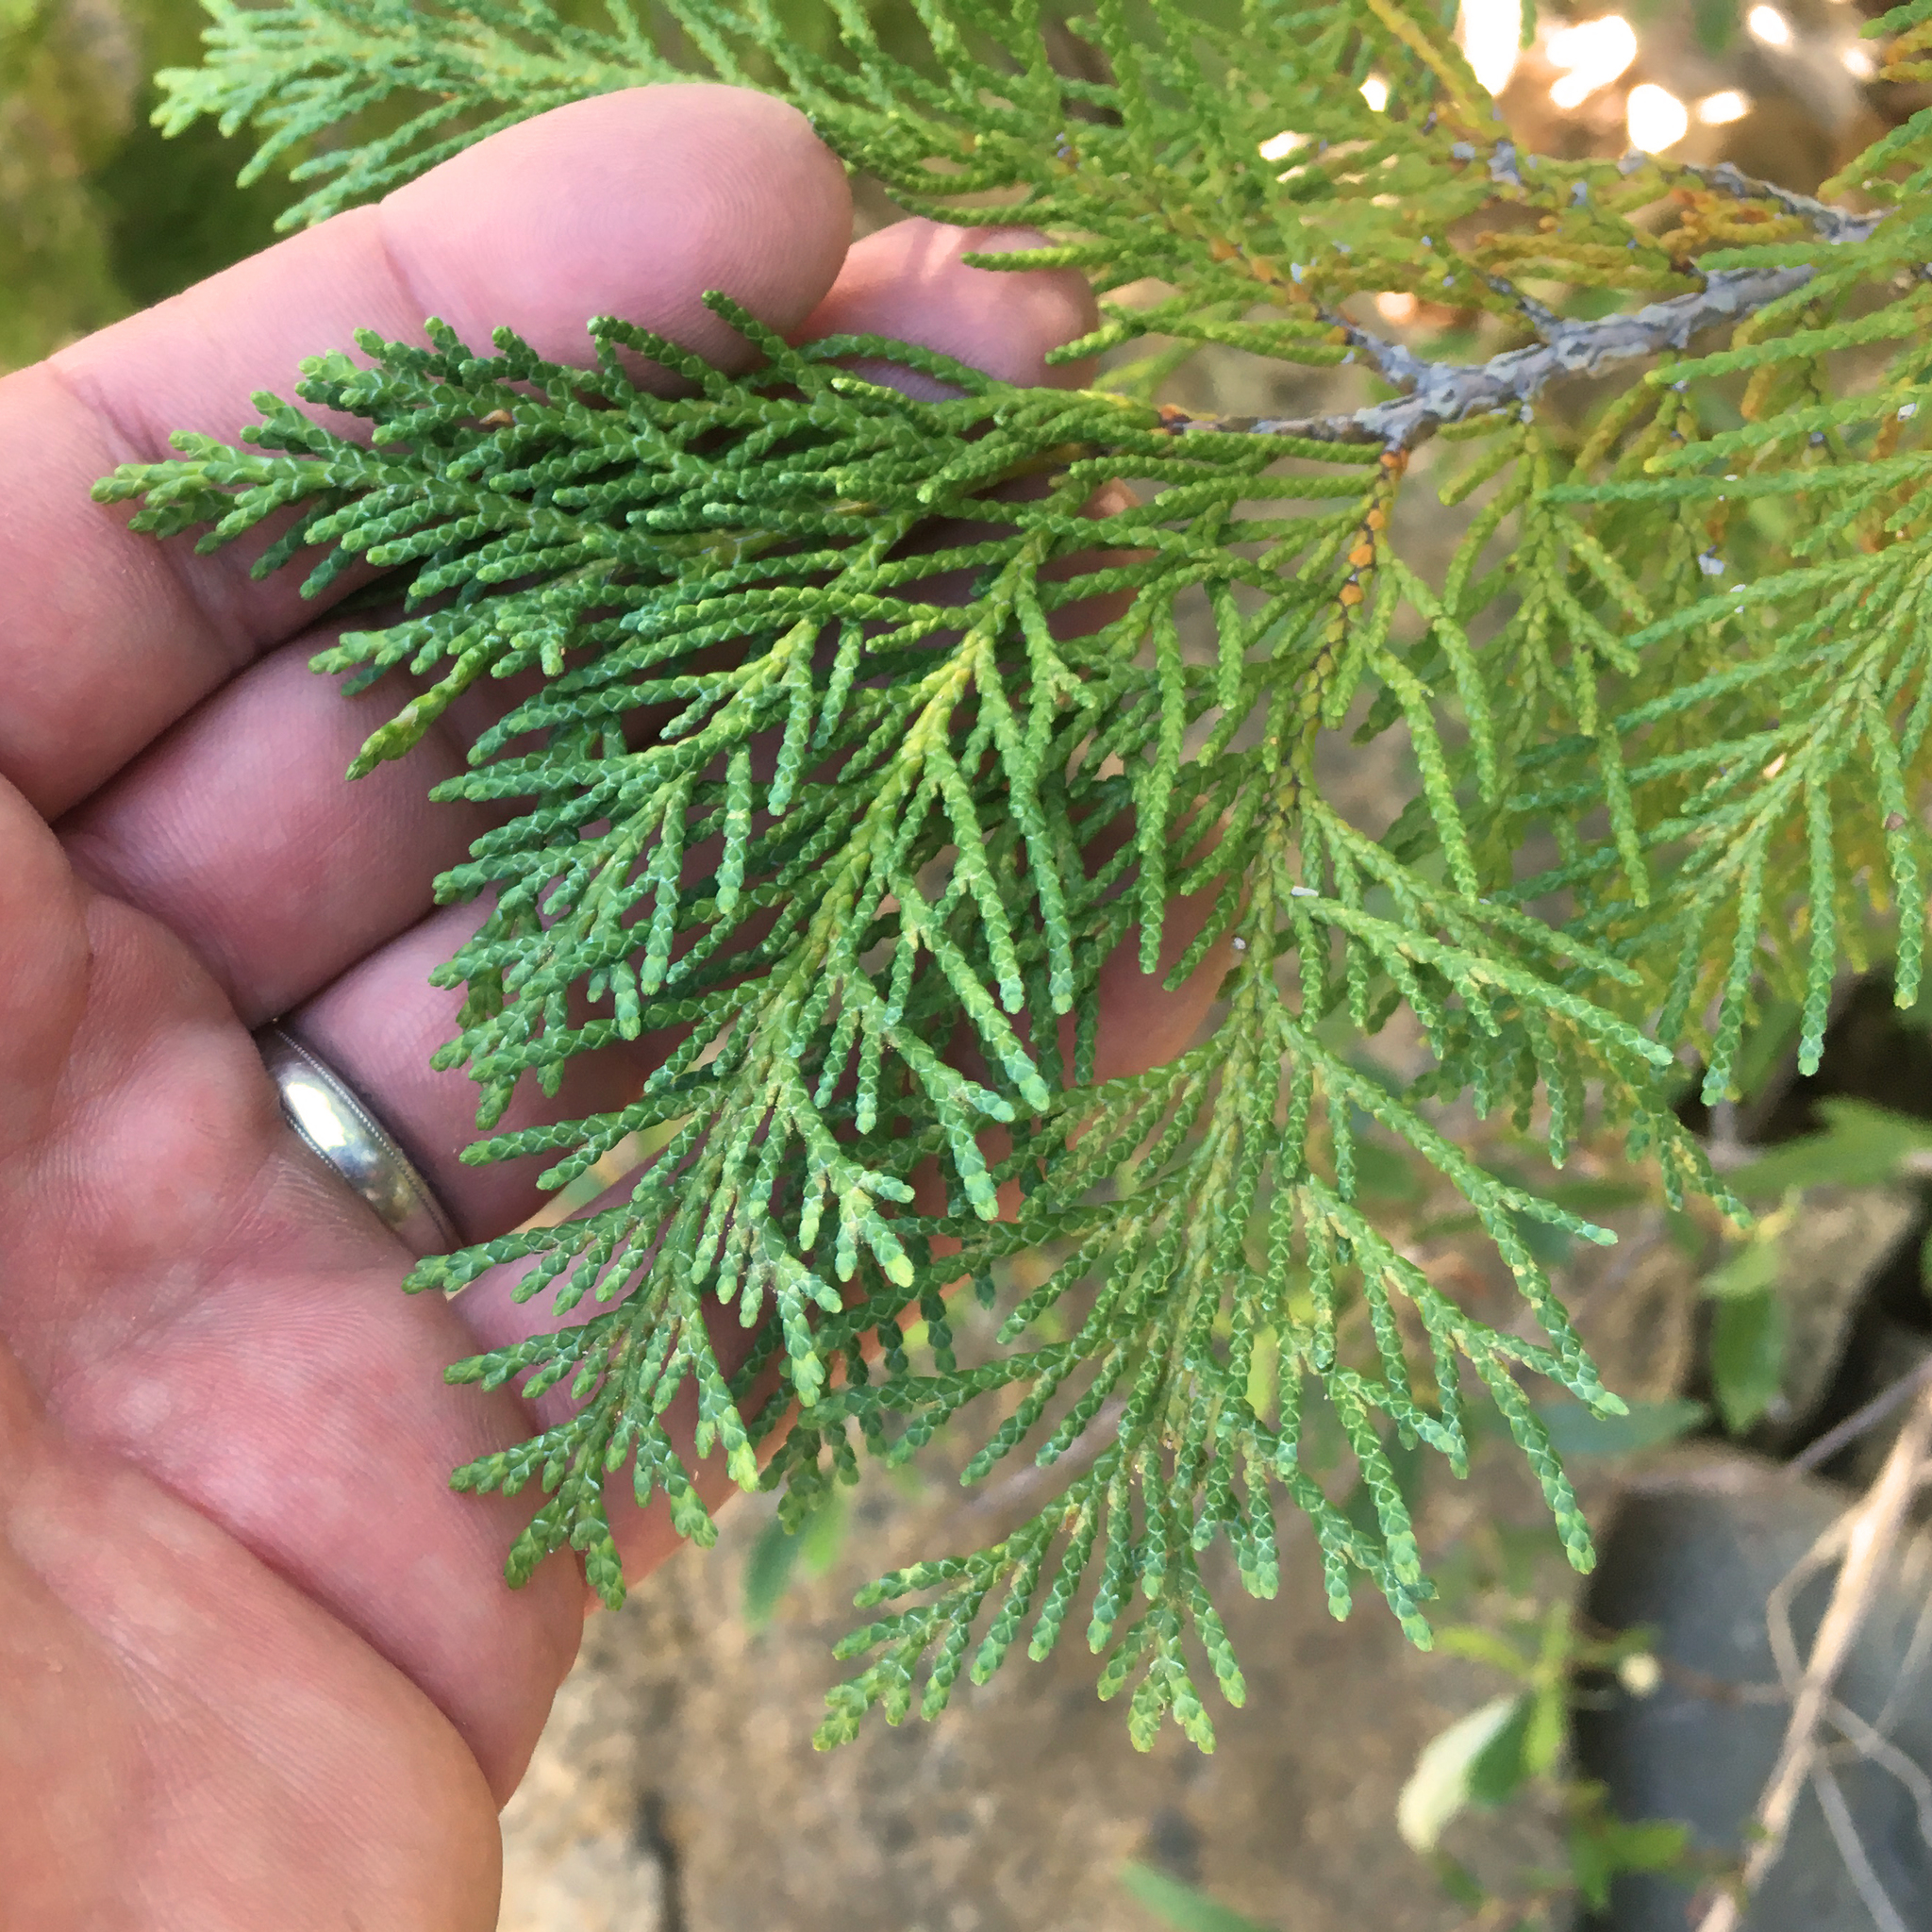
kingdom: Plantae
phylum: Tracheophyta
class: Pinopsida
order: Pinales
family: Cupressaceae
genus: Chamaecyparis
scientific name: Chamaecyparis lawsoniana
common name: Lawson's cypress
